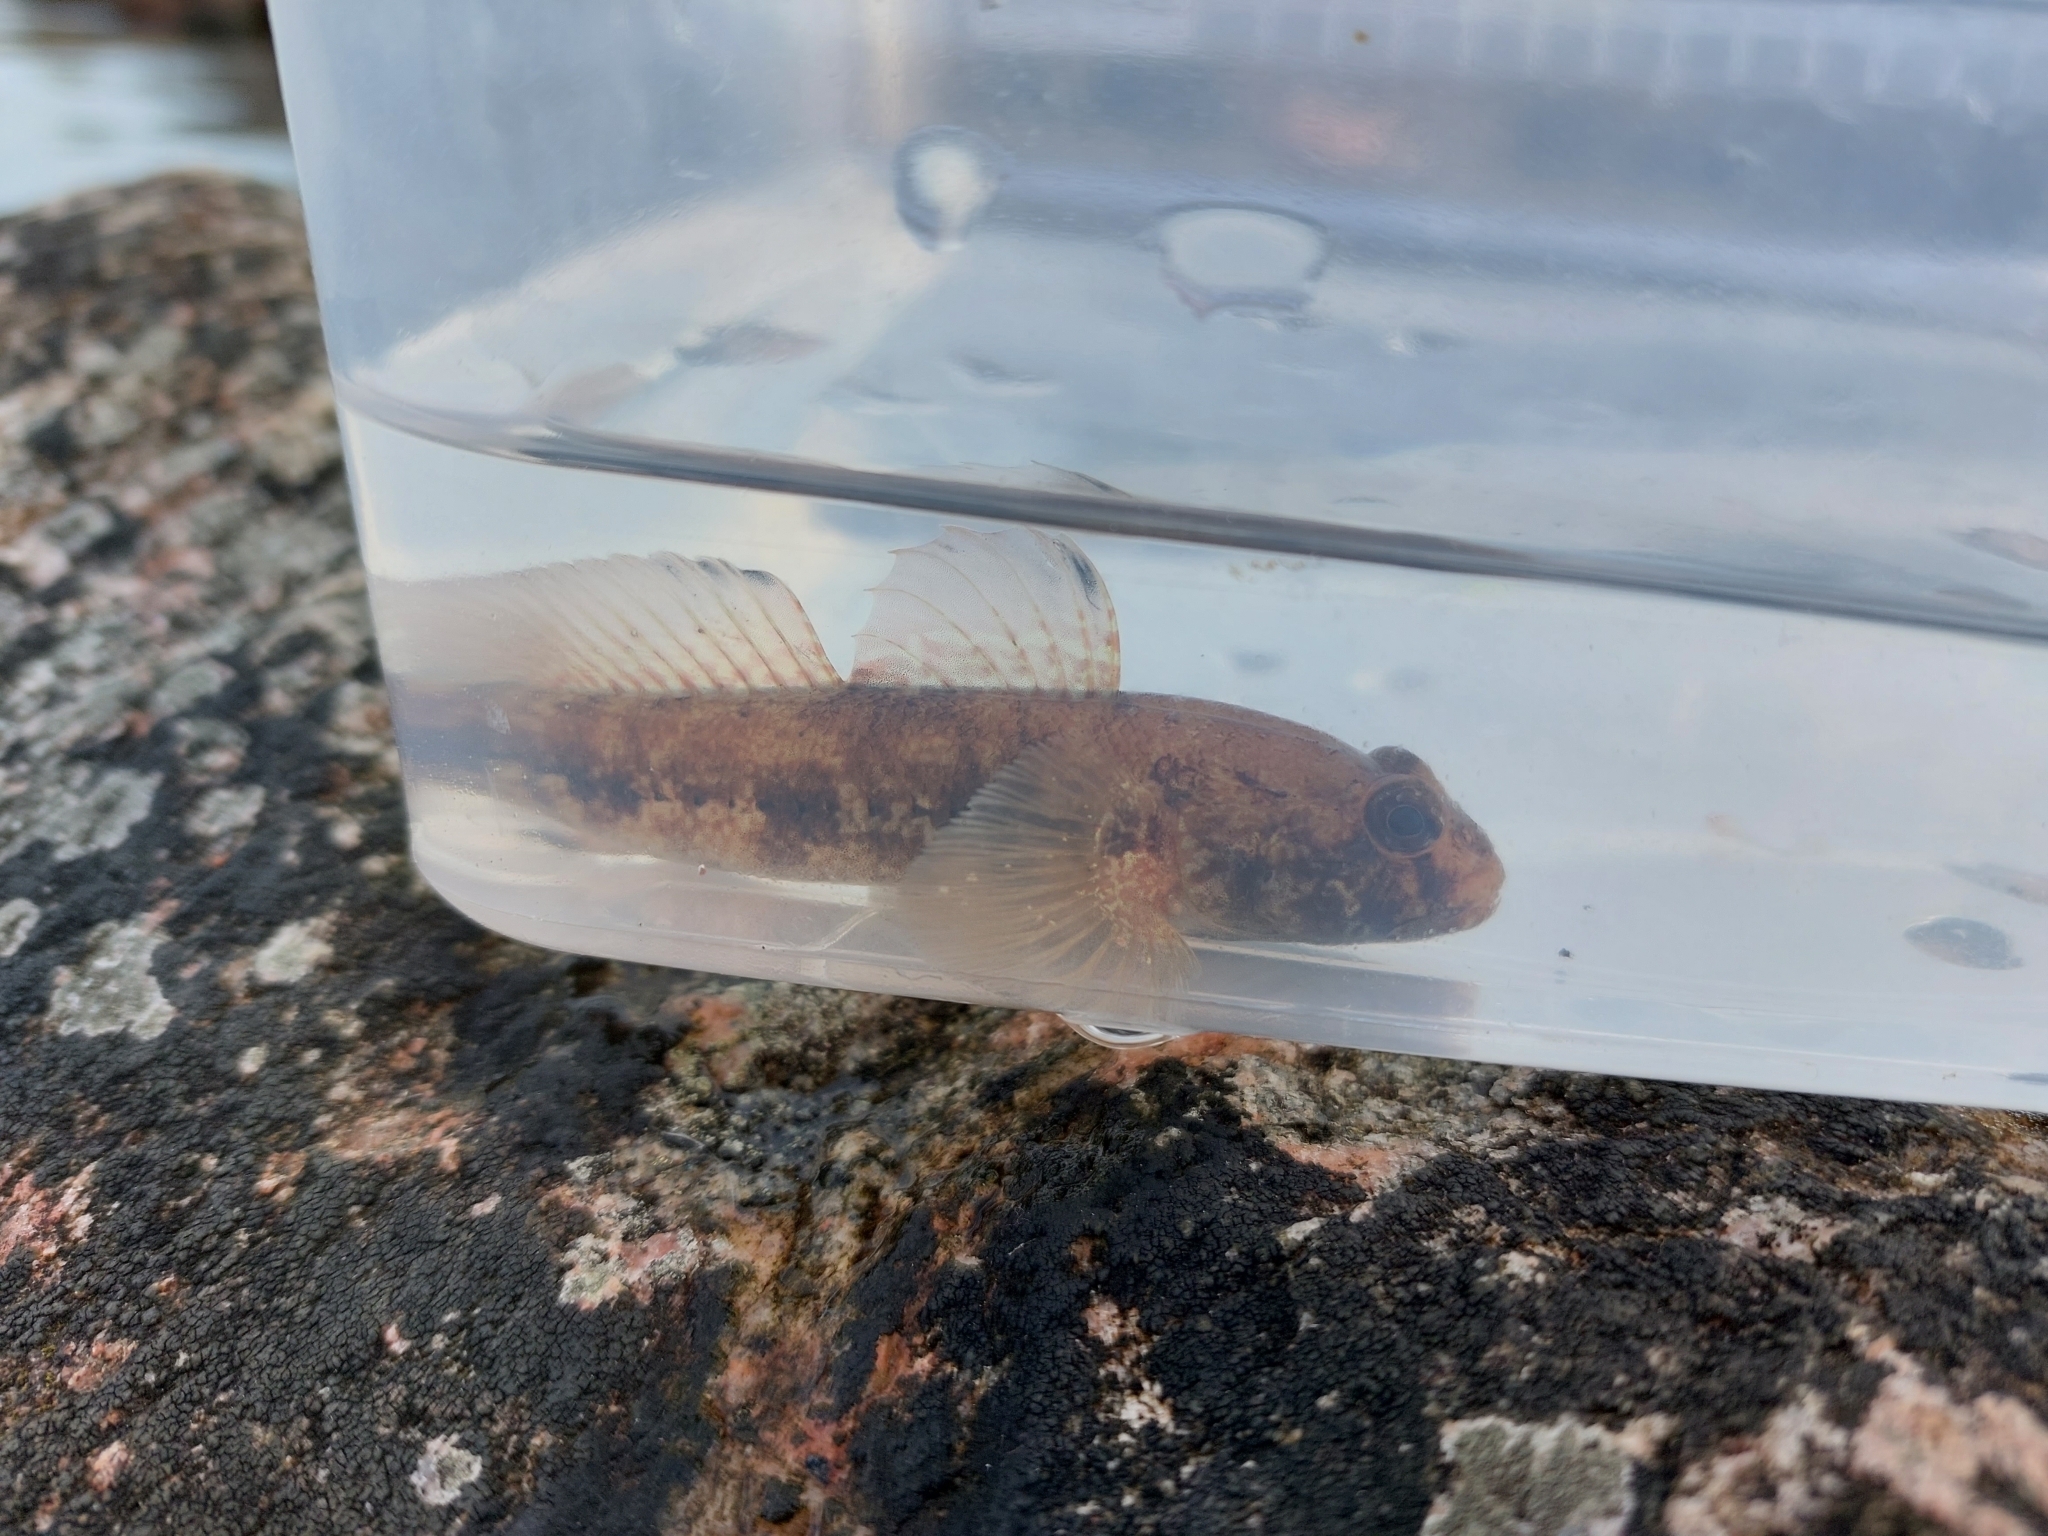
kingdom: Animalia
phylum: Chordata
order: Perciformes
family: Gobiidae
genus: Gobius
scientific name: Gobius niger
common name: Black goby
